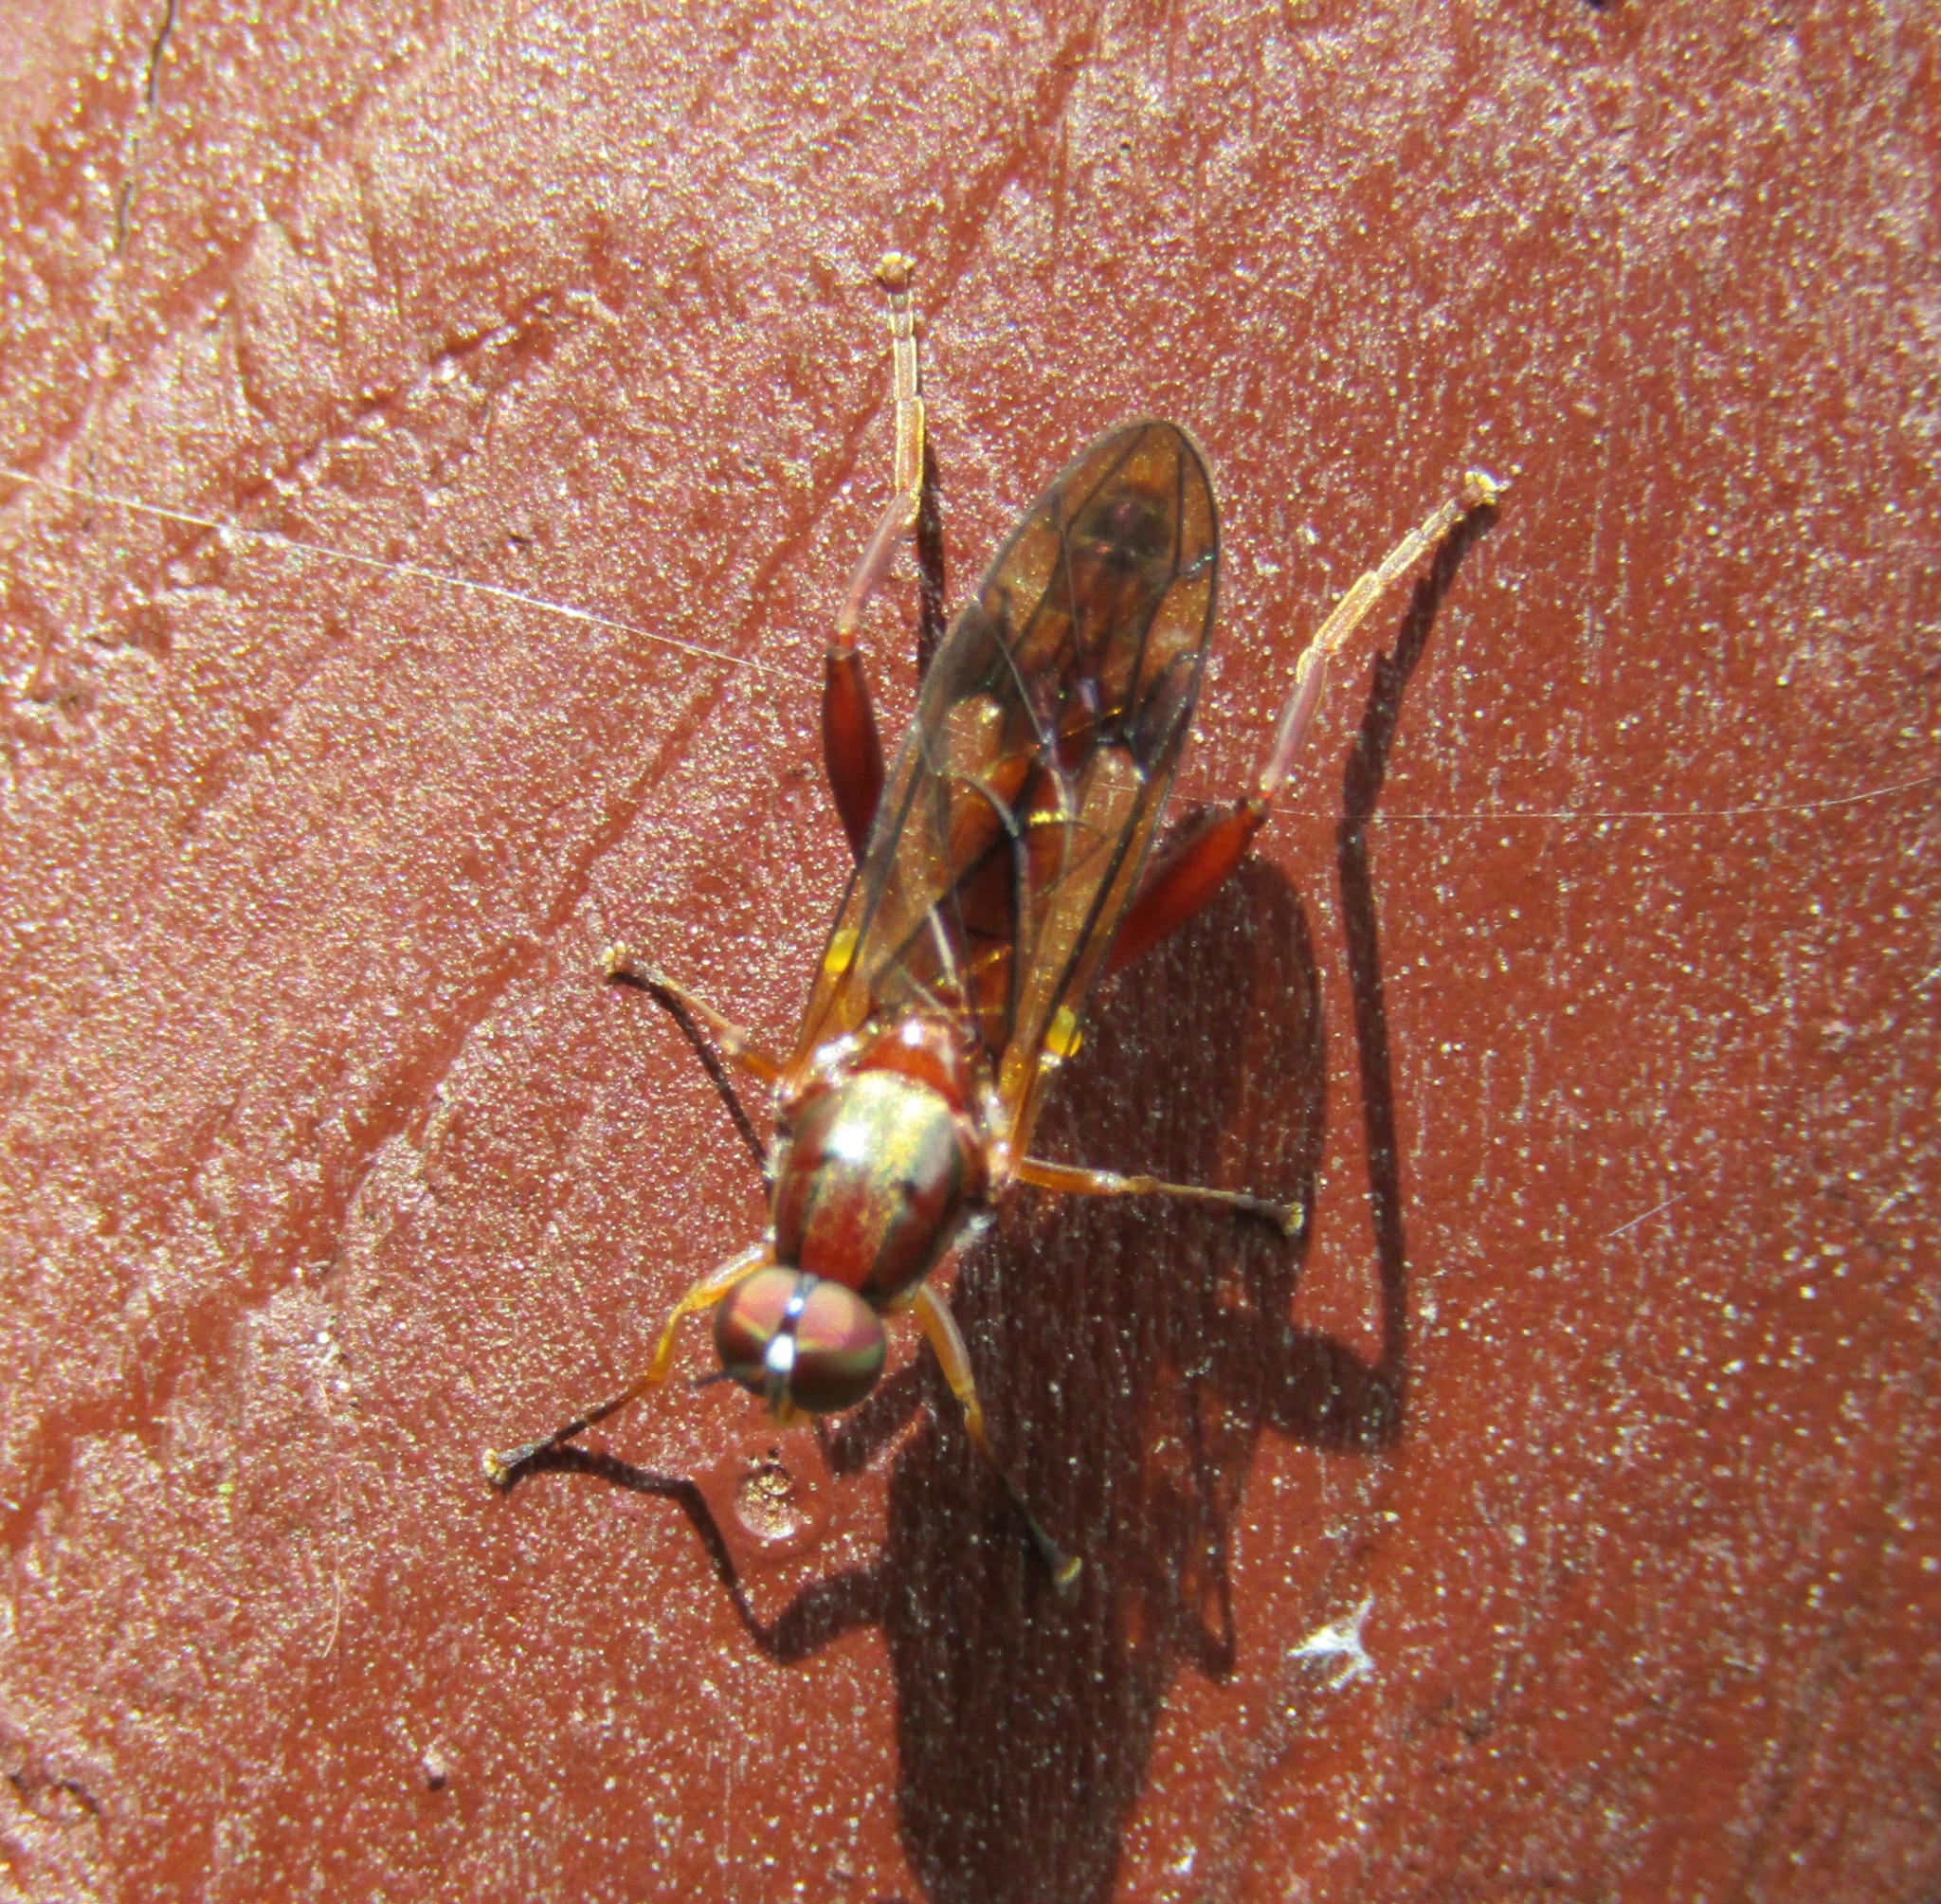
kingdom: Animalia
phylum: Arthropoda
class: Insecta
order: Diptera
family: Stratiomyidae
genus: Benhamyia
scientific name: Benhamyia straznitzkii
